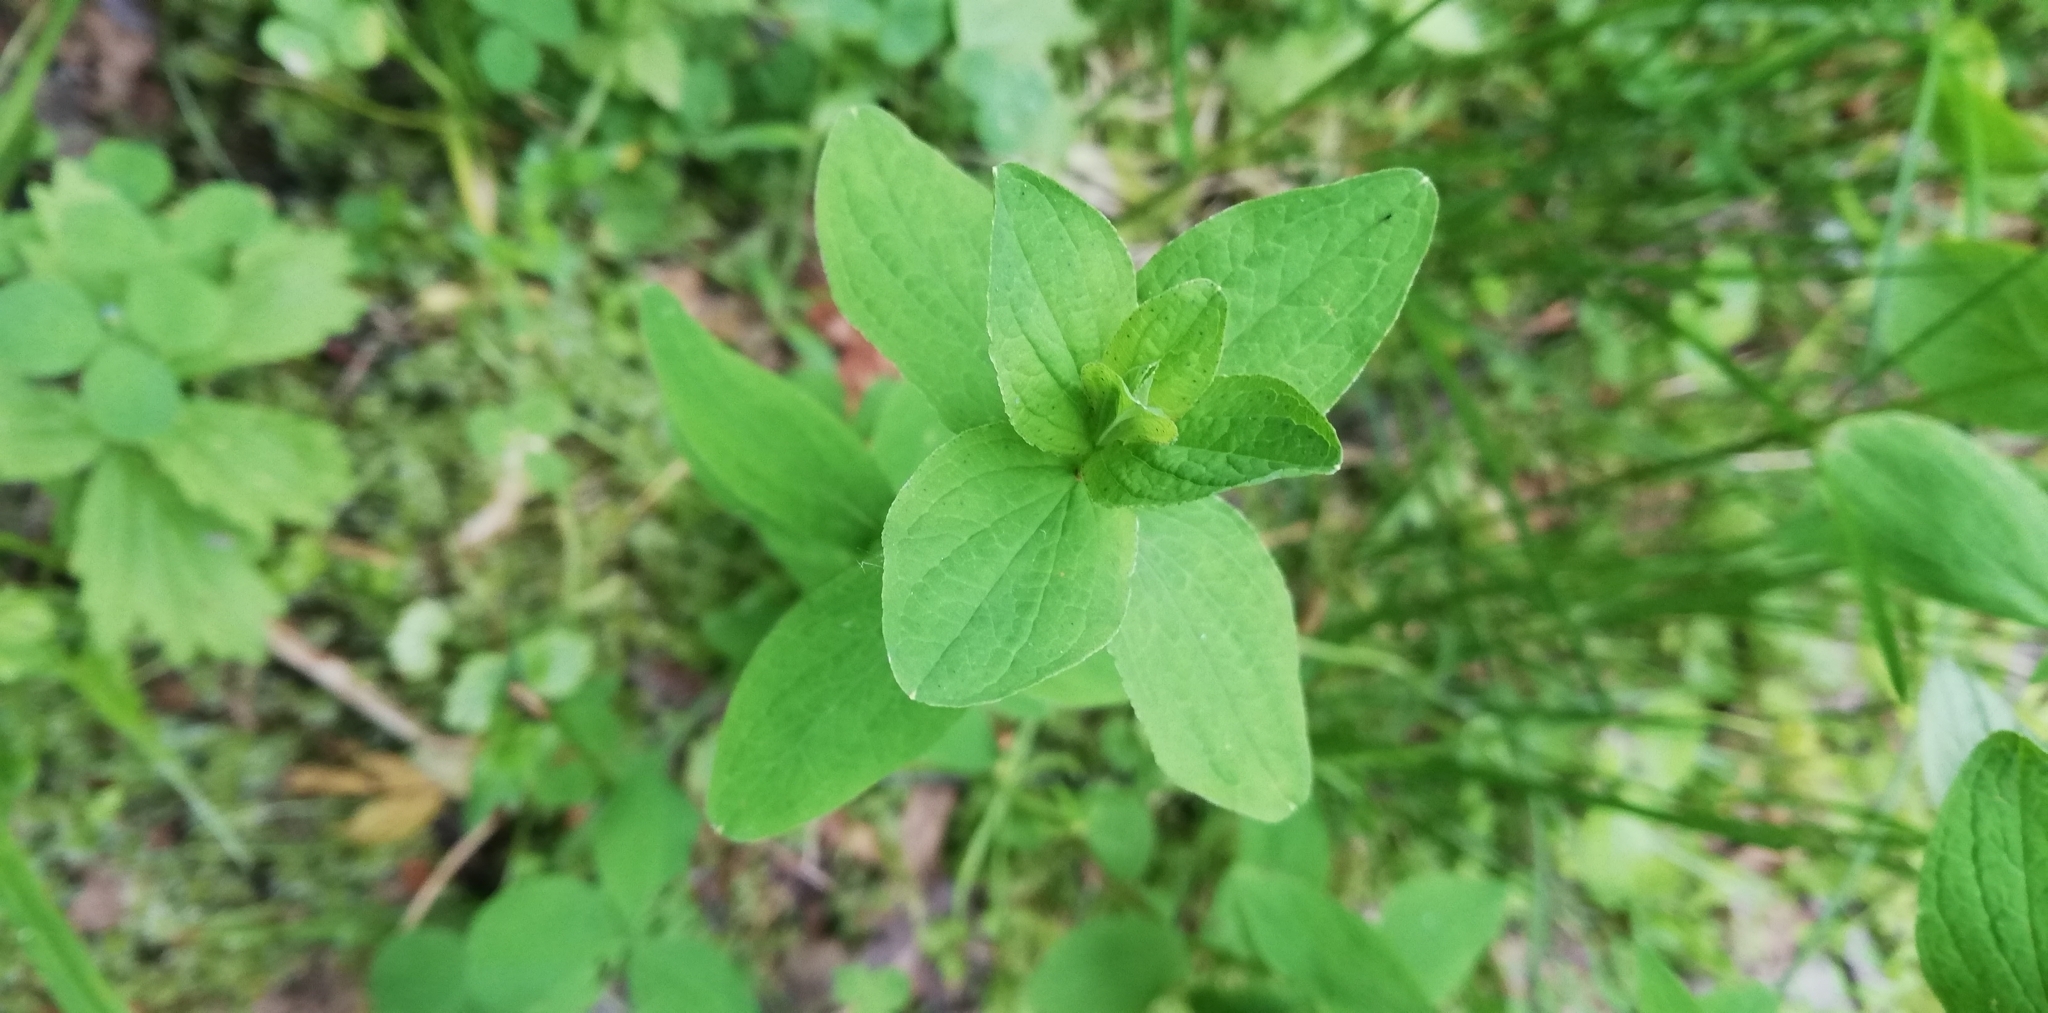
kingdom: Plantae
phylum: Tracheophyta
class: Magnoliopsida
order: Malpighiales
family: Hypericaceae
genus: Hypericum
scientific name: Hypericum maculatum
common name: Imperforate st. john's-wort
